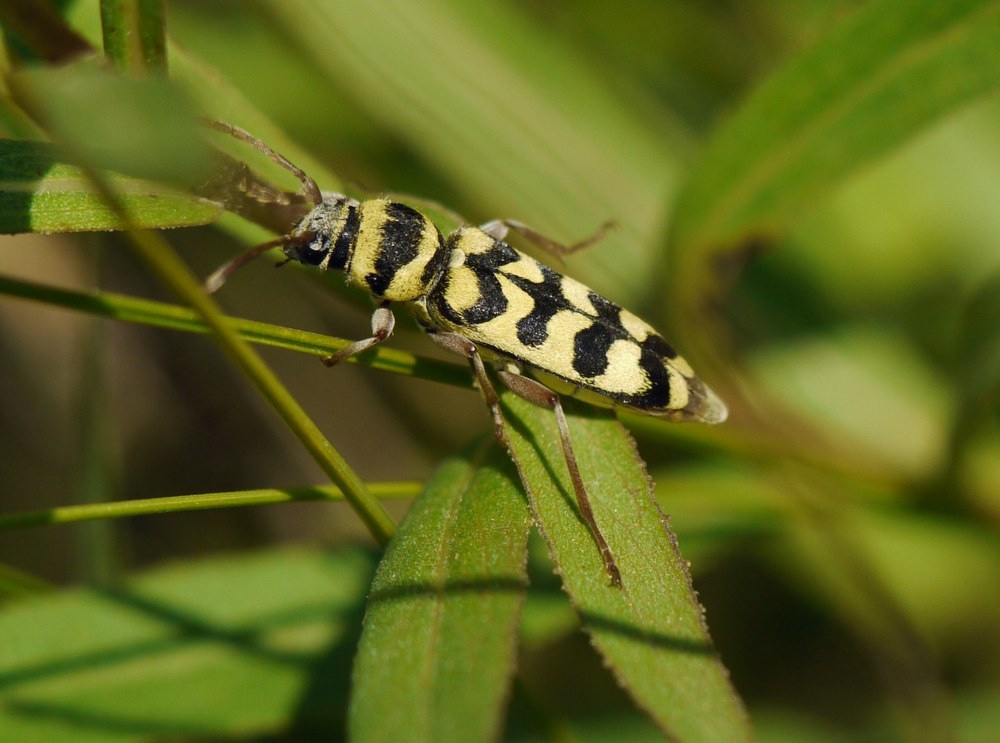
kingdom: Animalia
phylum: Arthropoda
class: Insecta
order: Coleoptera
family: Cerambycidae
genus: Plagionotus
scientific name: Plagionotus floralis
